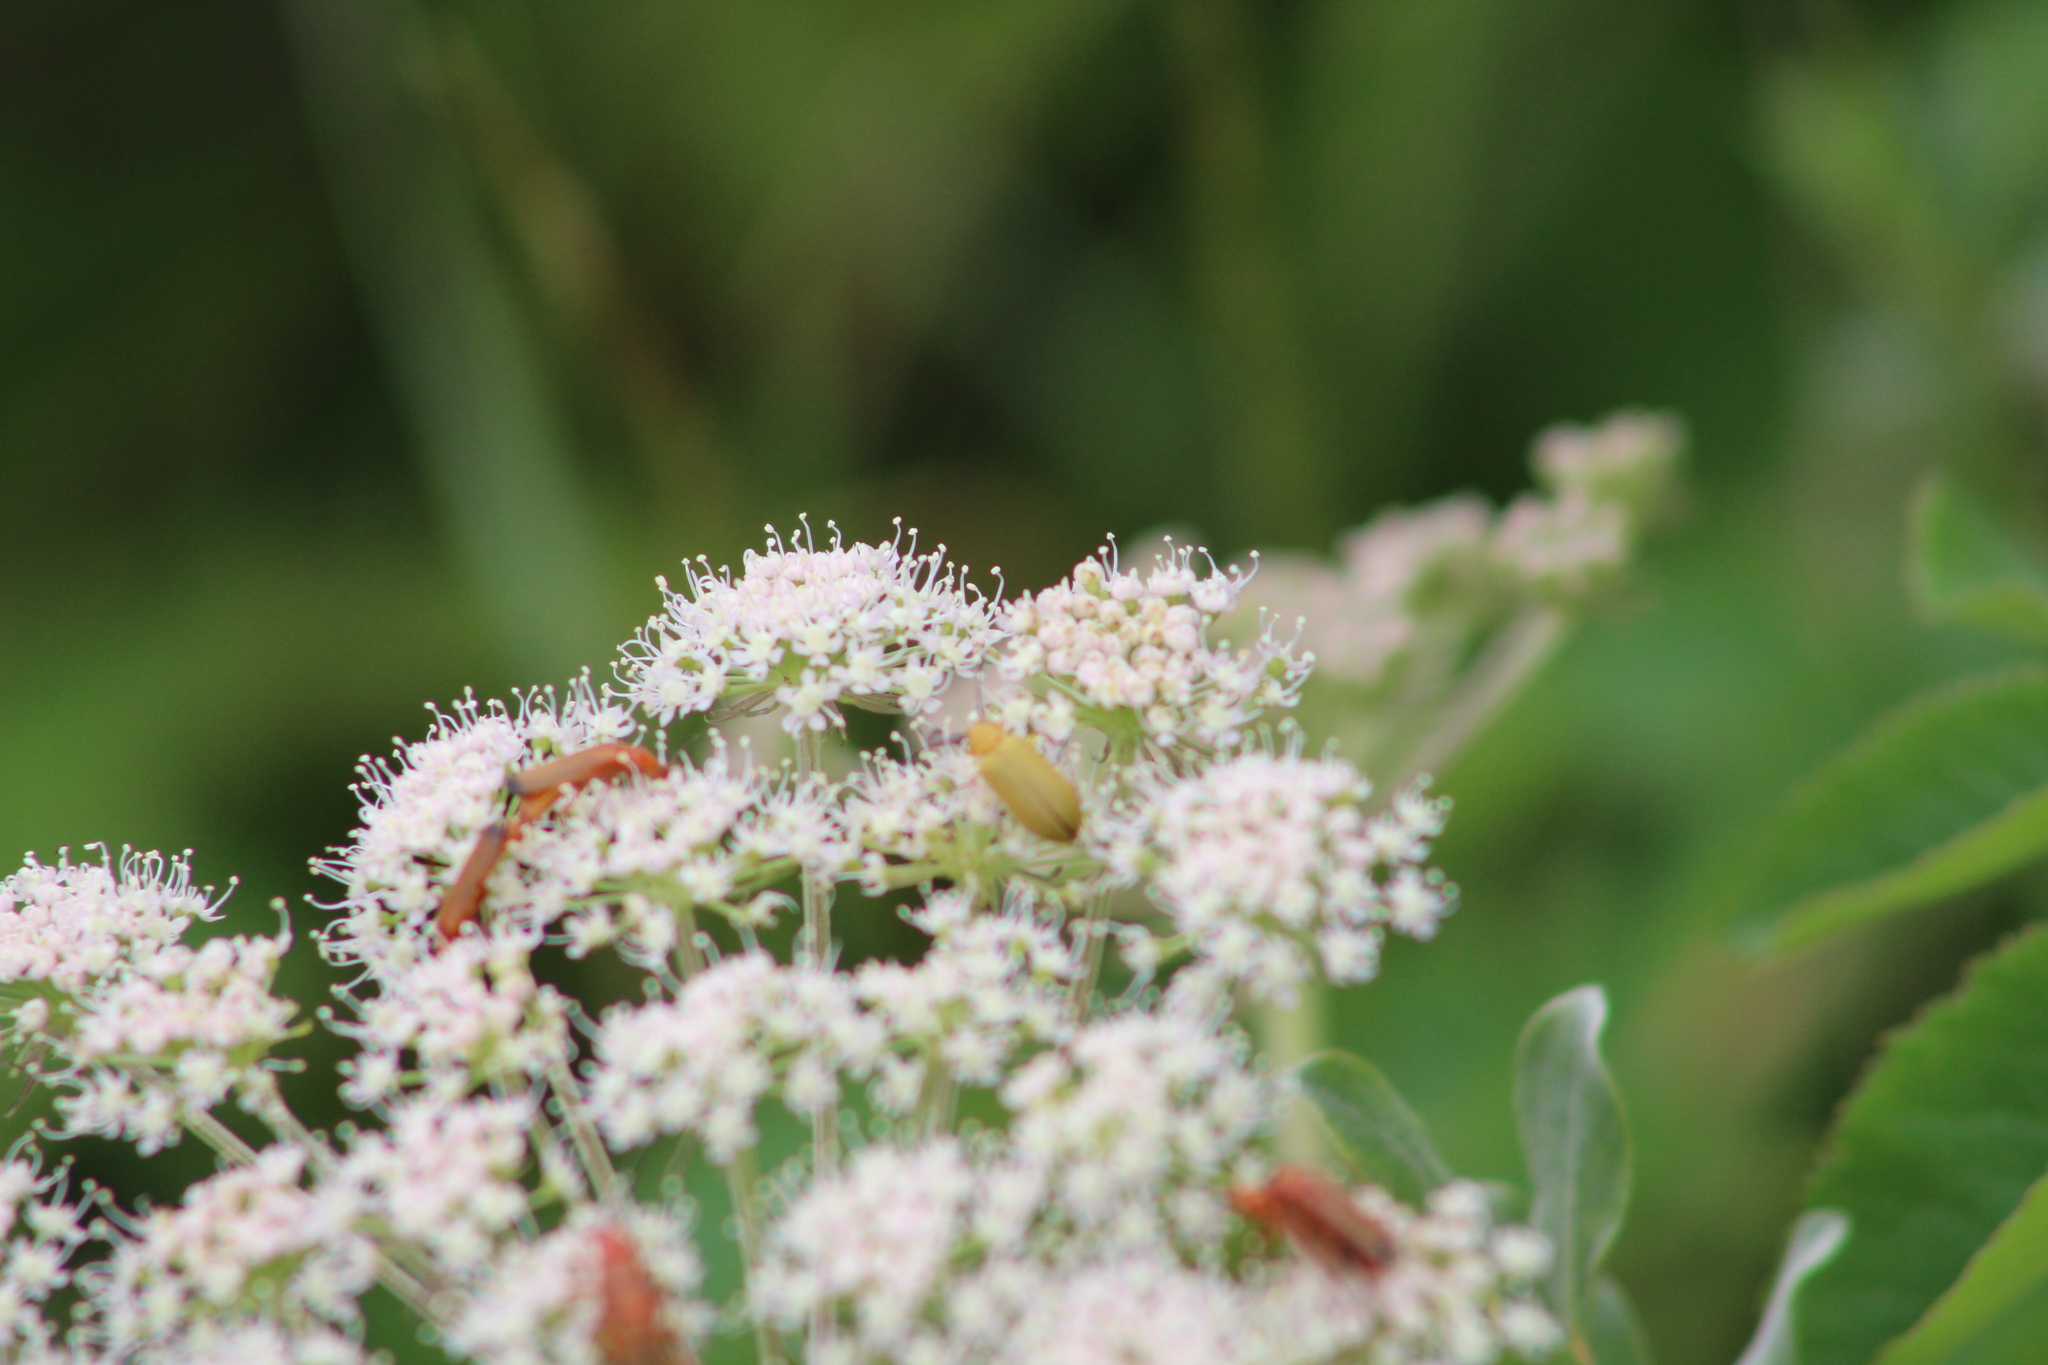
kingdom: Animalia
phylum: Arthropoda
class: Insecta
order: Coleoptera
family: Tenebrionidae
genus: Cteniopus
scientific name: Cteniopus sulphureus
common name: Sulphur beetle
